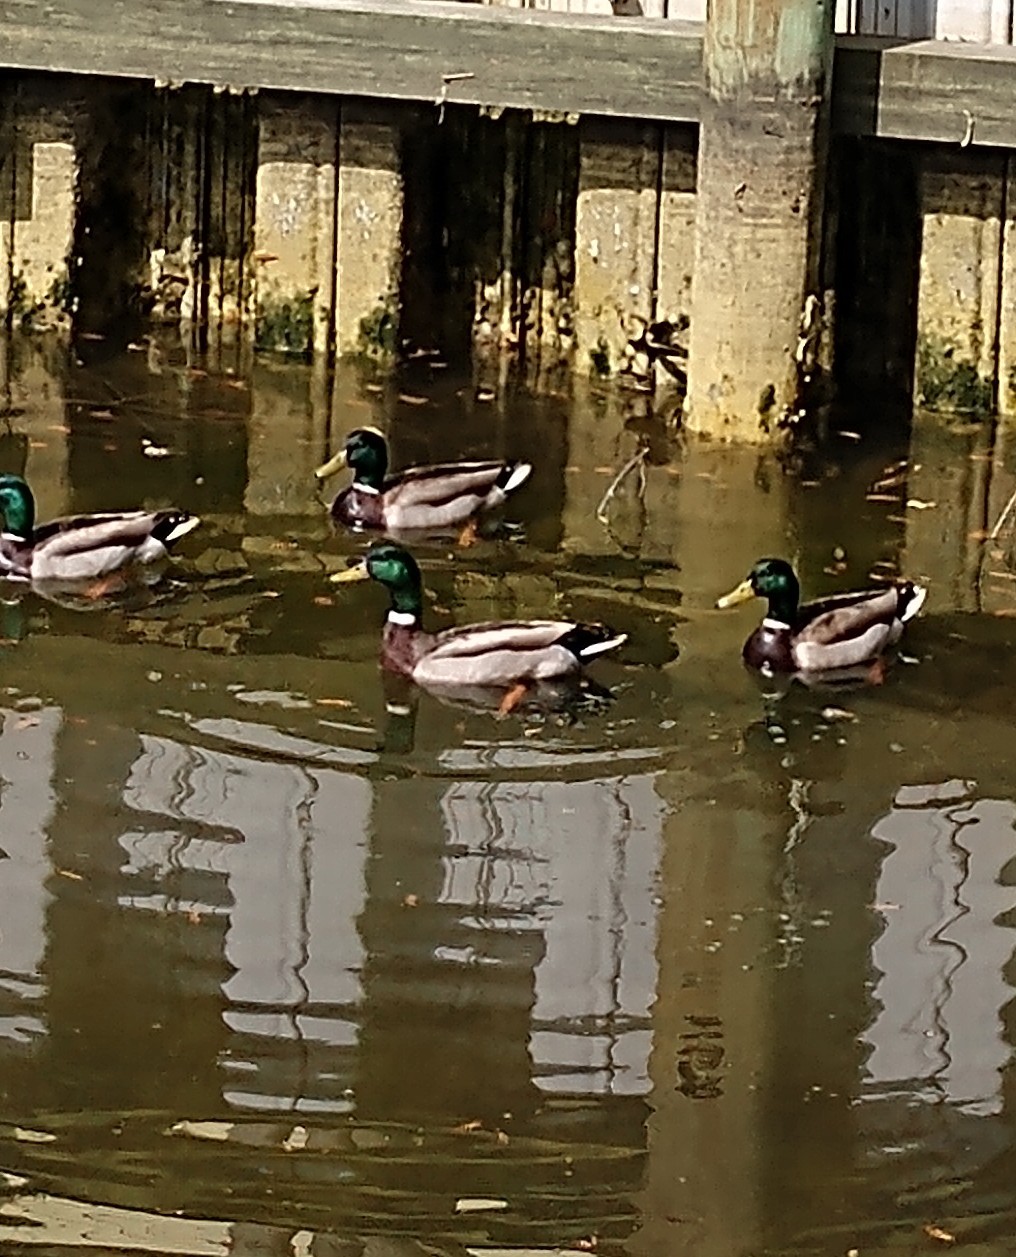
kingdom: Animalia
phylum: Chordata
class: Aves
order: Anseriformes
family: Anatidae
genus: Anas
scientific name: Anas platyrhynchos
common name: Mallard
